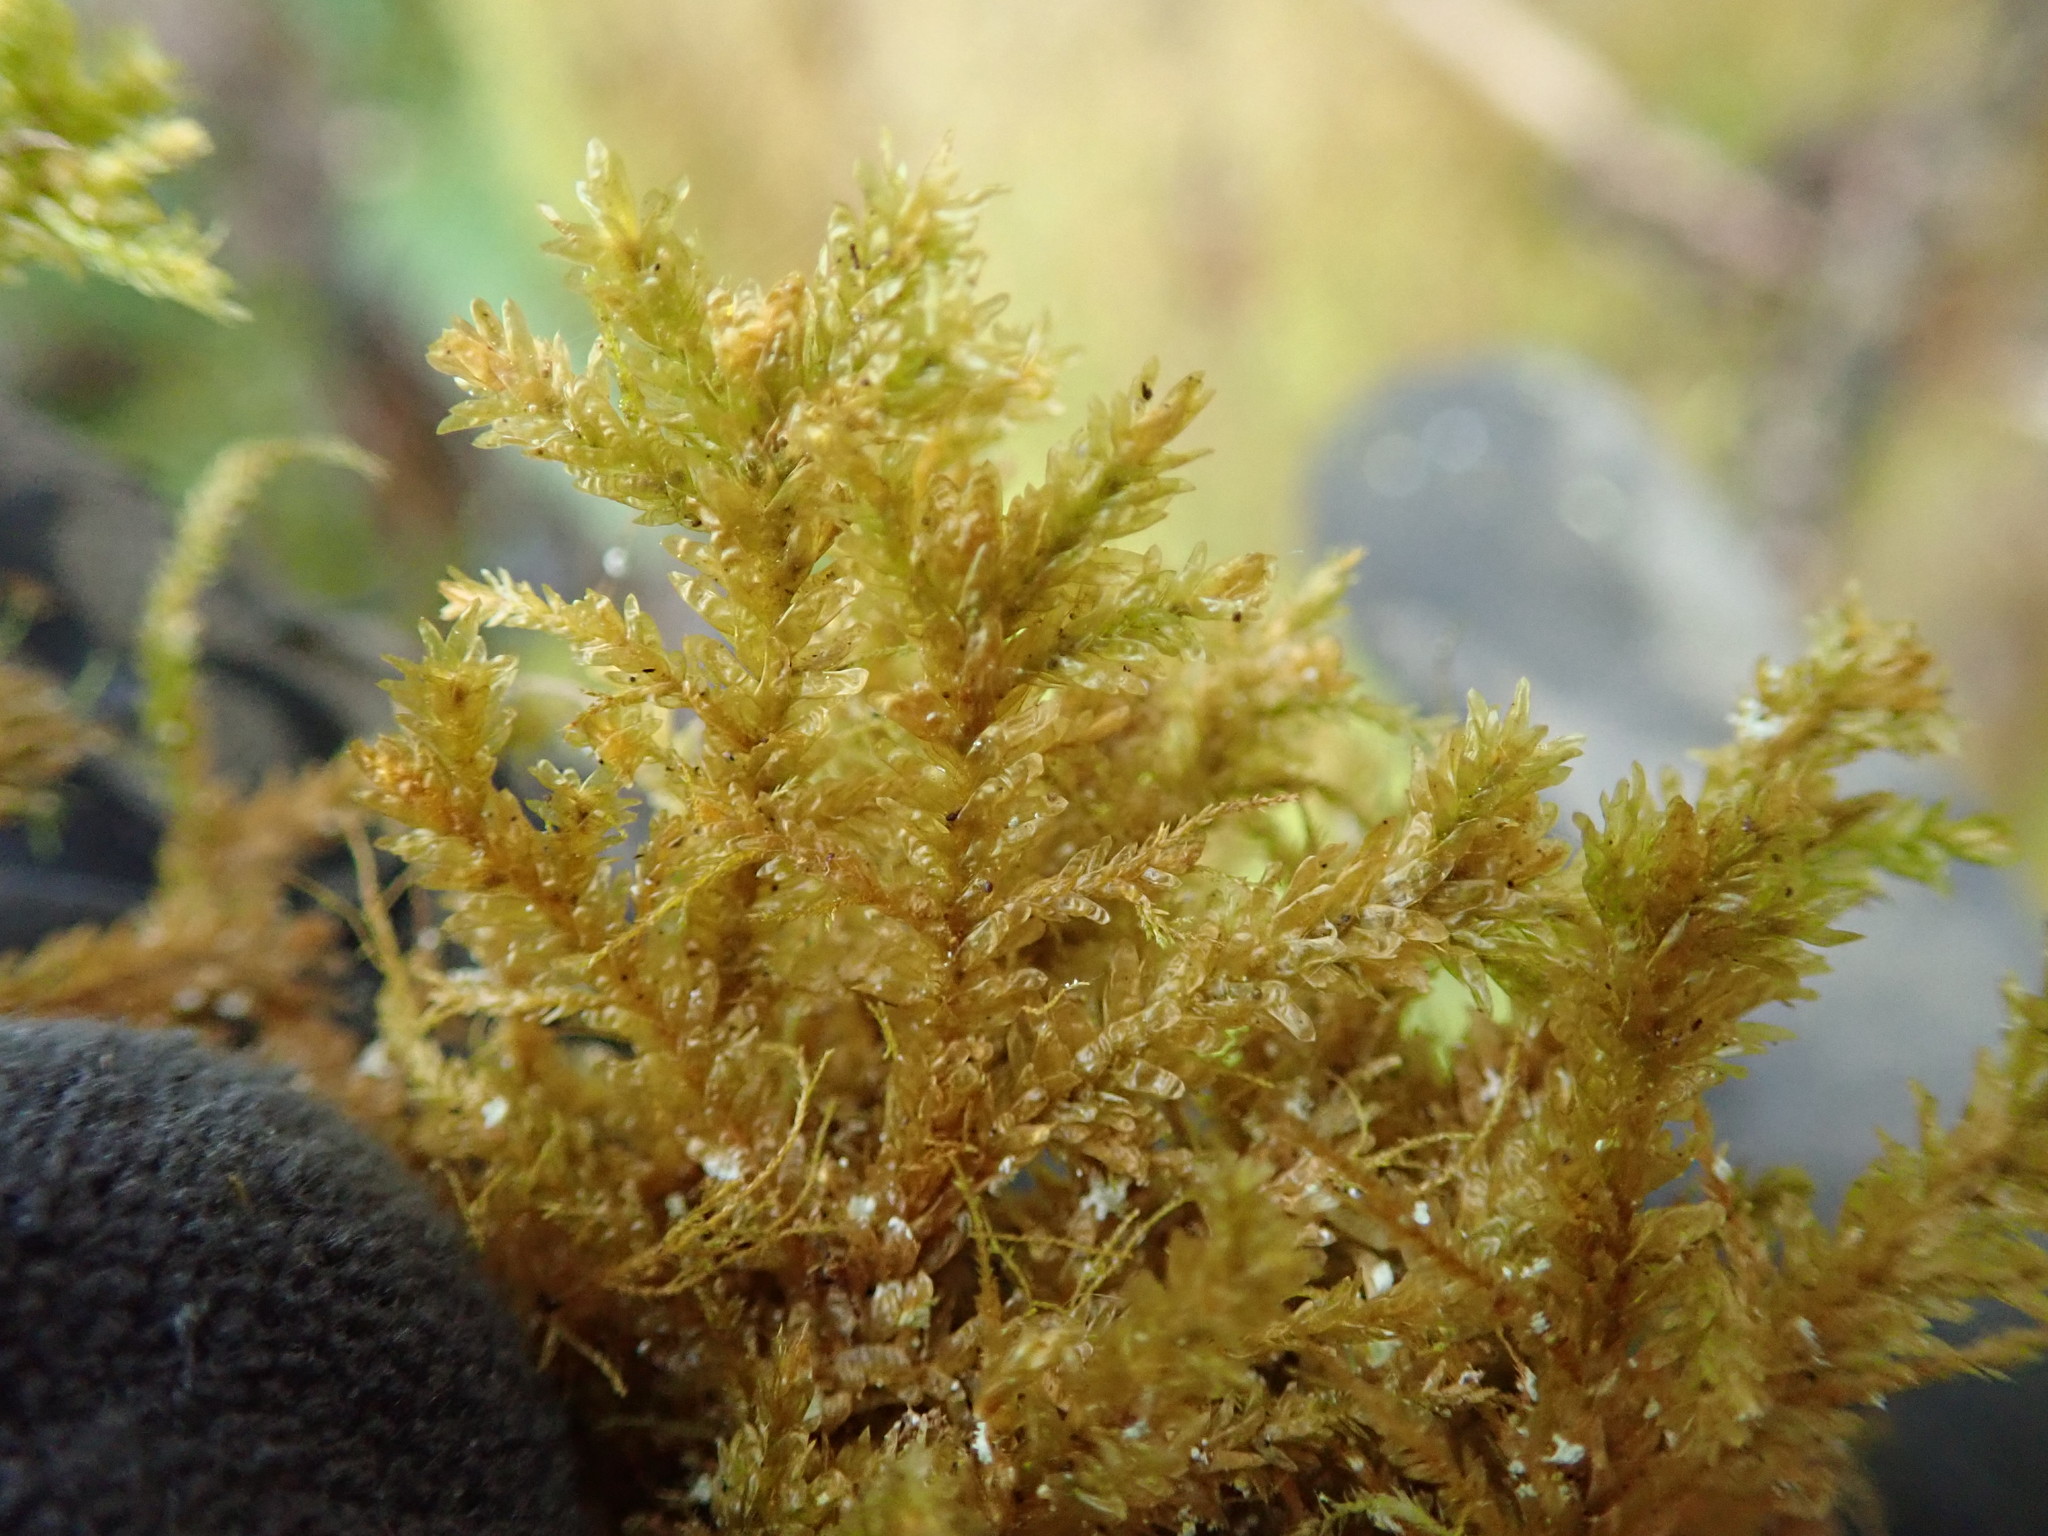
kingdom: Plantae
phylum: Bryophyta
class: Bryopsida
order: Hypnales
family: Neckeraceae
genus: Metaneckera
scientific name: Metaneckera menziesii
